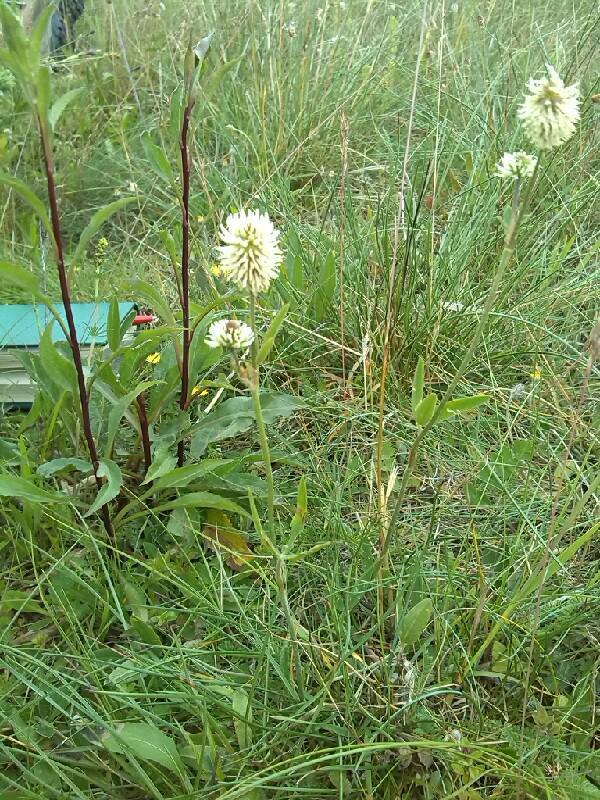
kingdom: Plantae
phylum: Tracheophyta
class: Magnoliopsida
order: Fabales
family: Fabaceae
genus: Trifolium
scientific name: Trifolium montanum
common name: Mountain clover
